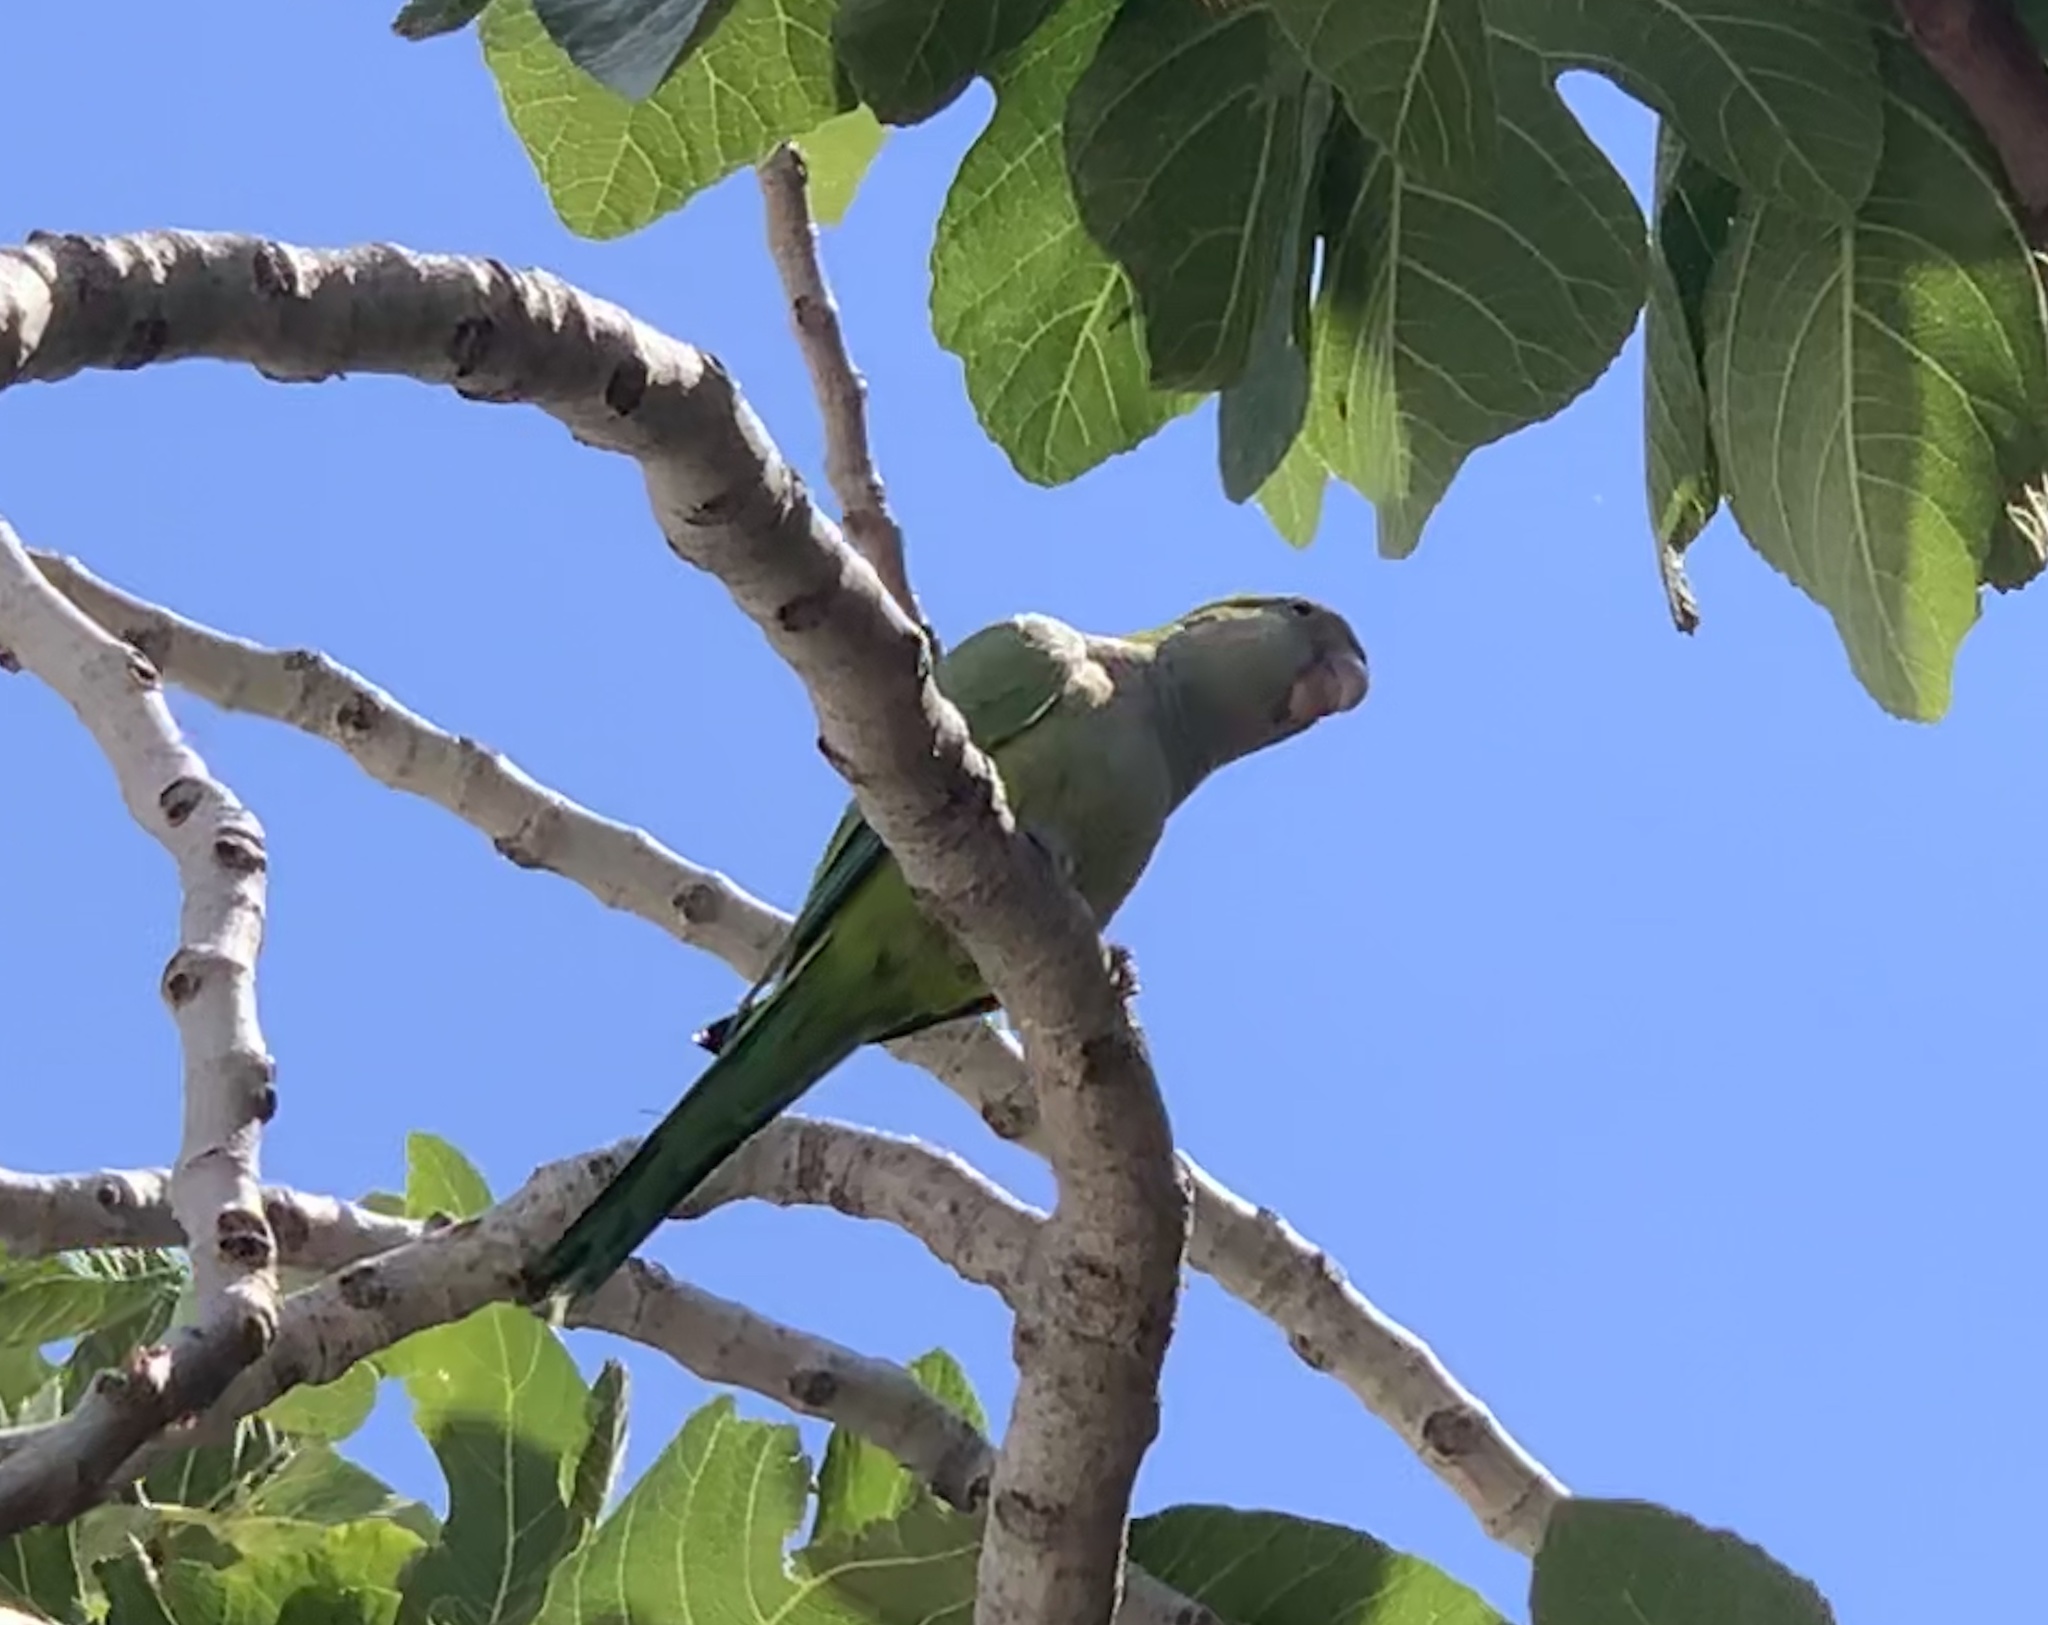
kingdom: Animalia
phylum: Chordata
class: Aves
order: Psittaciformes
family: Psittacidae
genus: Myiopsitta
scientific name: Myiopsitta monachus
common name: Monk parakeet
